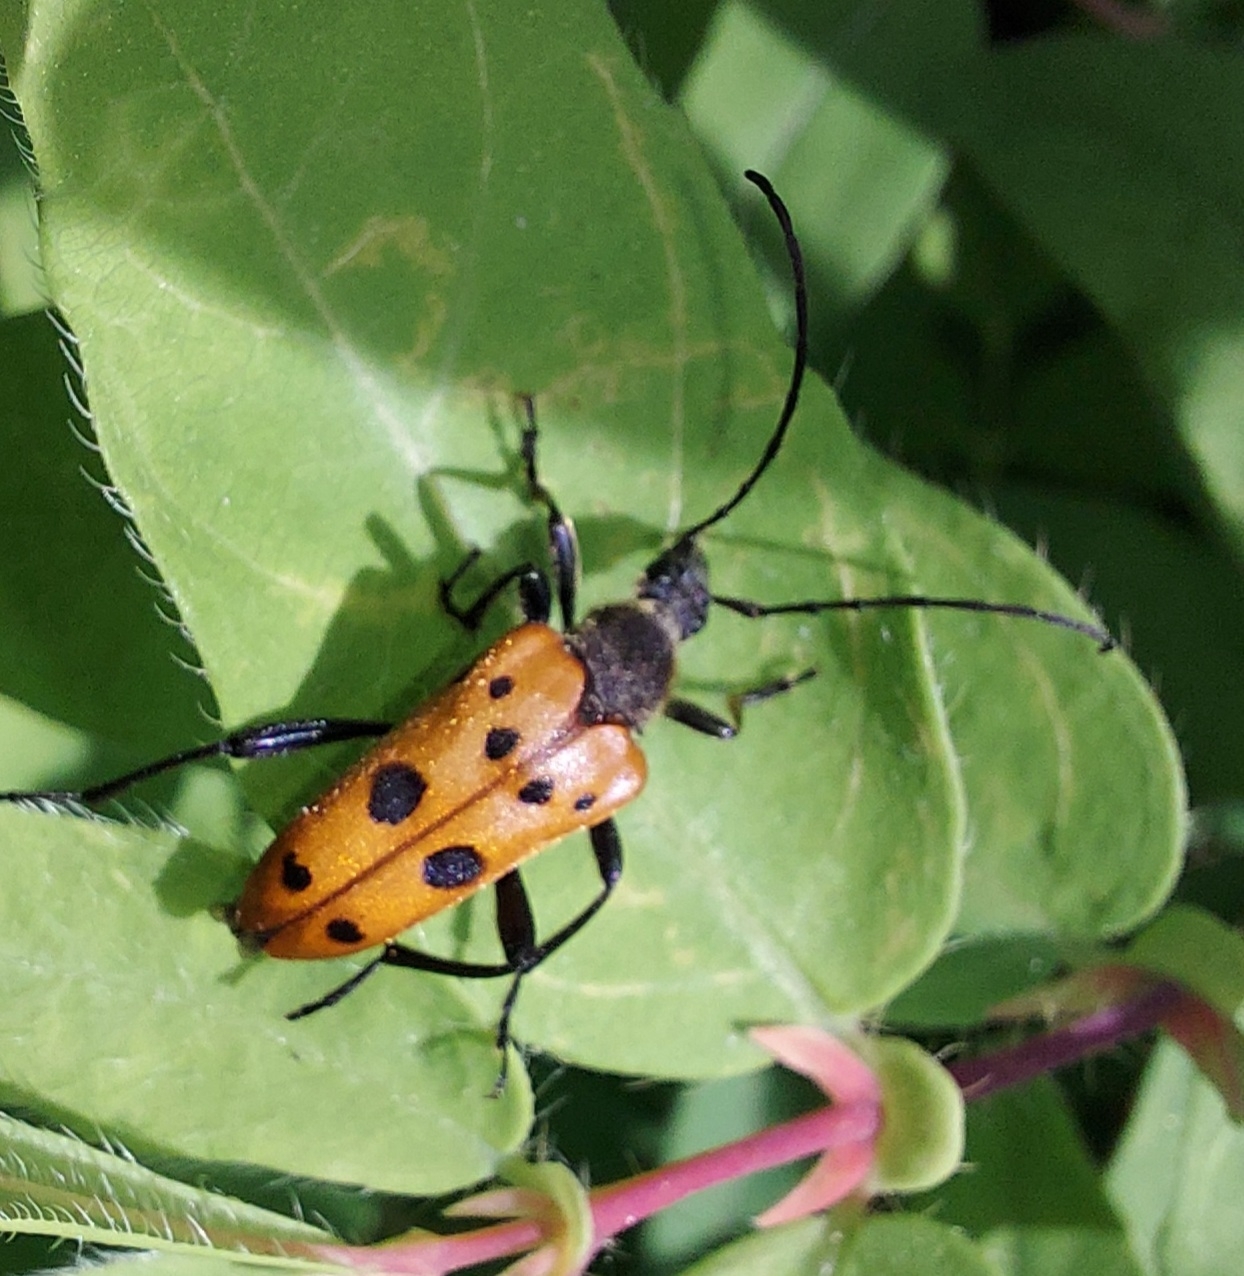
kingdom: Animalia
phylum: Arthropoda
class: Insecta
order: Coleoptera
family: Cerambycidae
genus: Oedecnema
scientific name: Oedecnema gebleri
